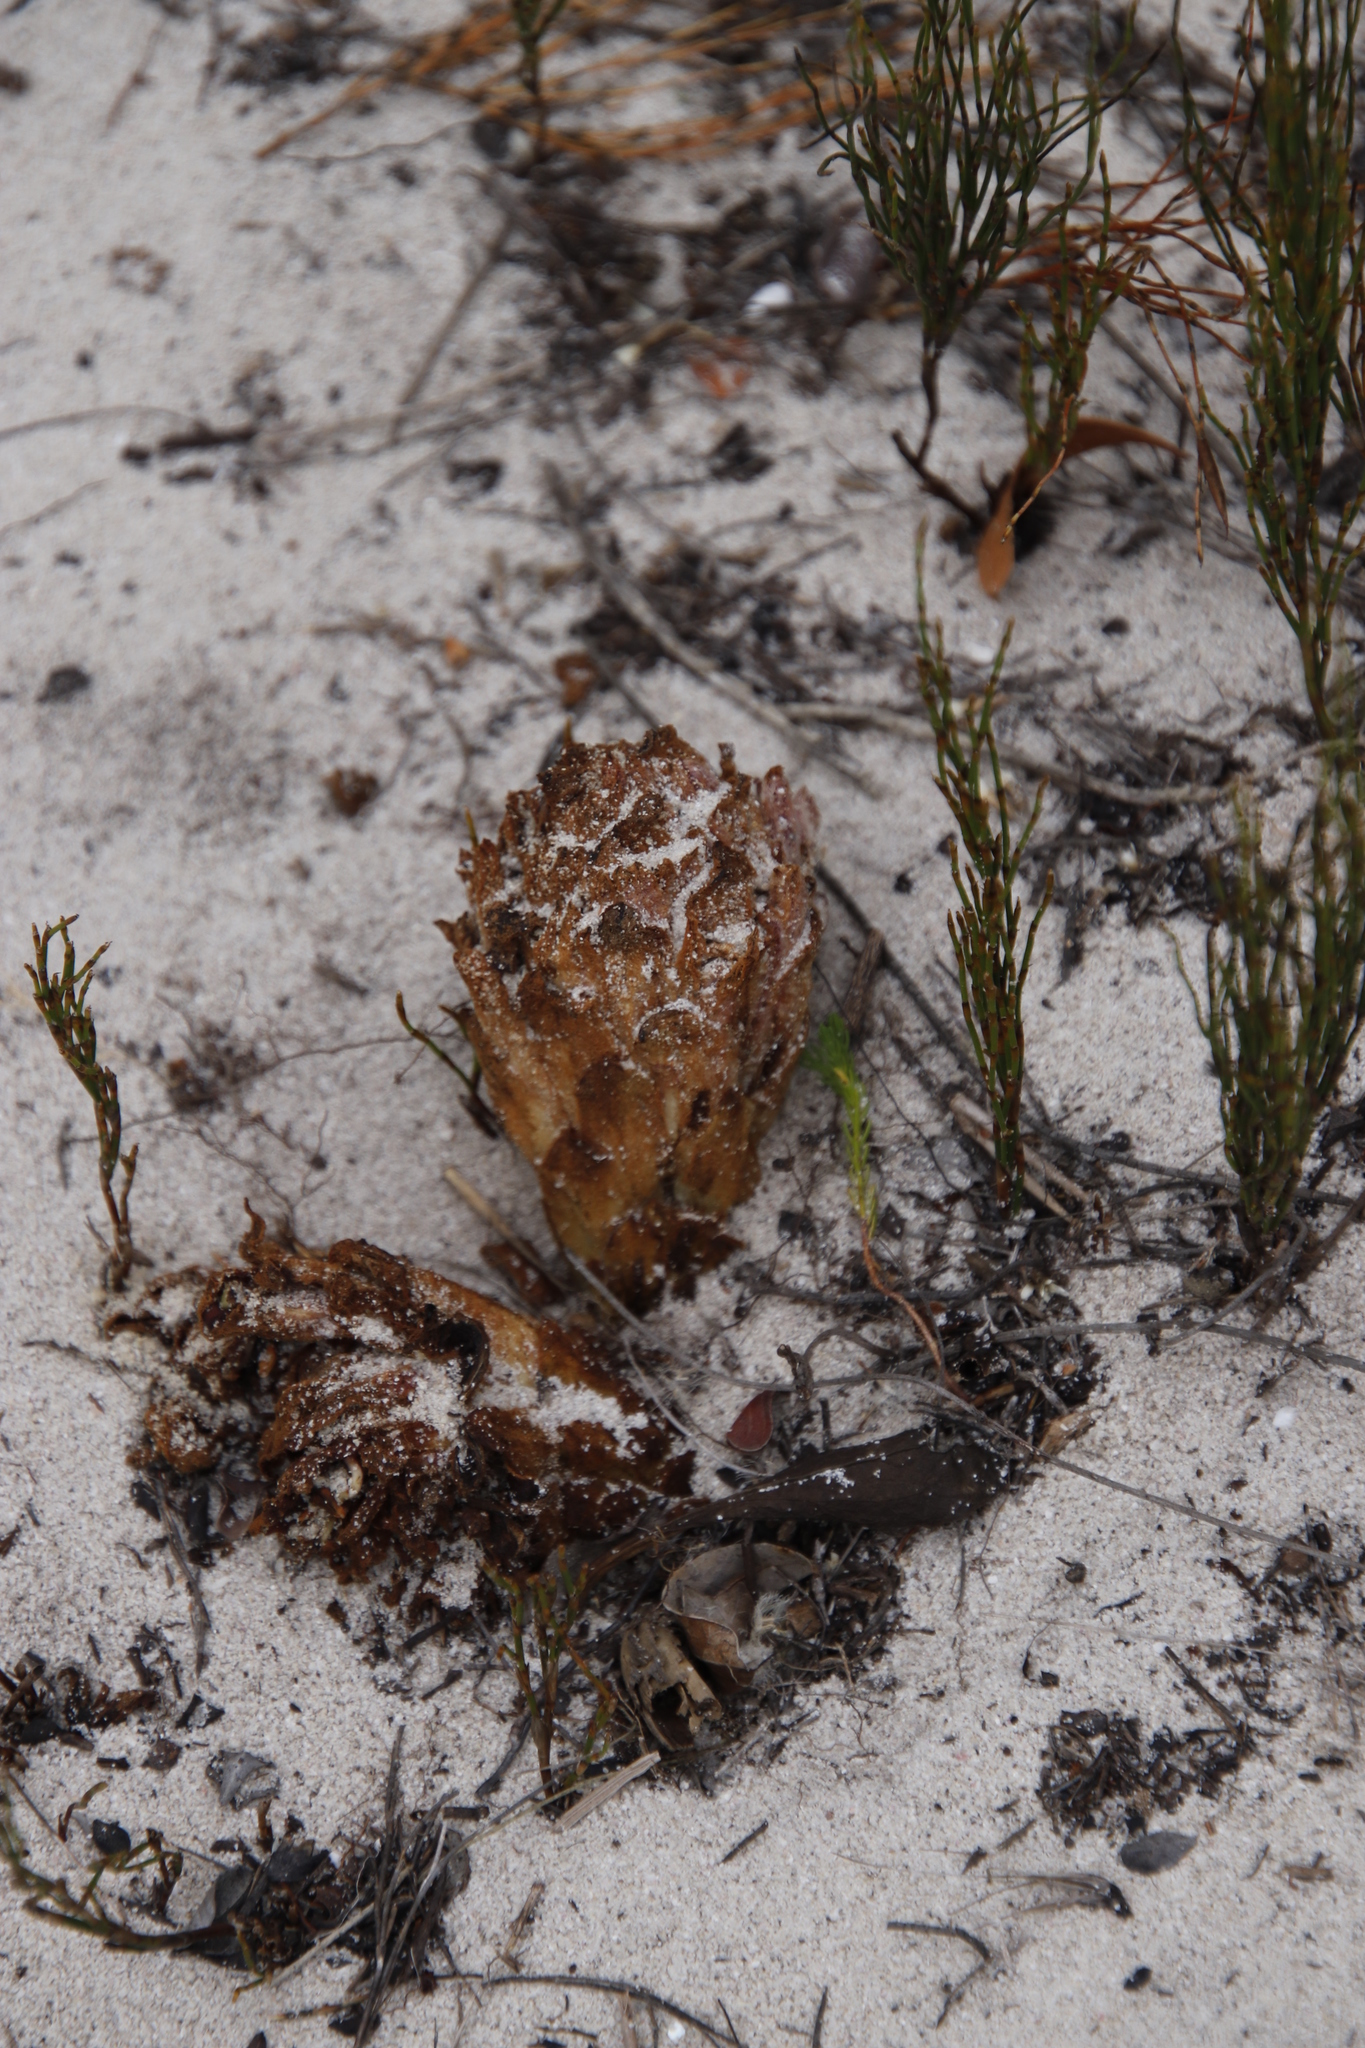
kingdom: Plantae
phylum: Tracheophyta
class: Magnoliopsida
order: Lamiales
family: Orobanchaceae
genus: Hyobanche
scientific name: Hyobanche thinophila
